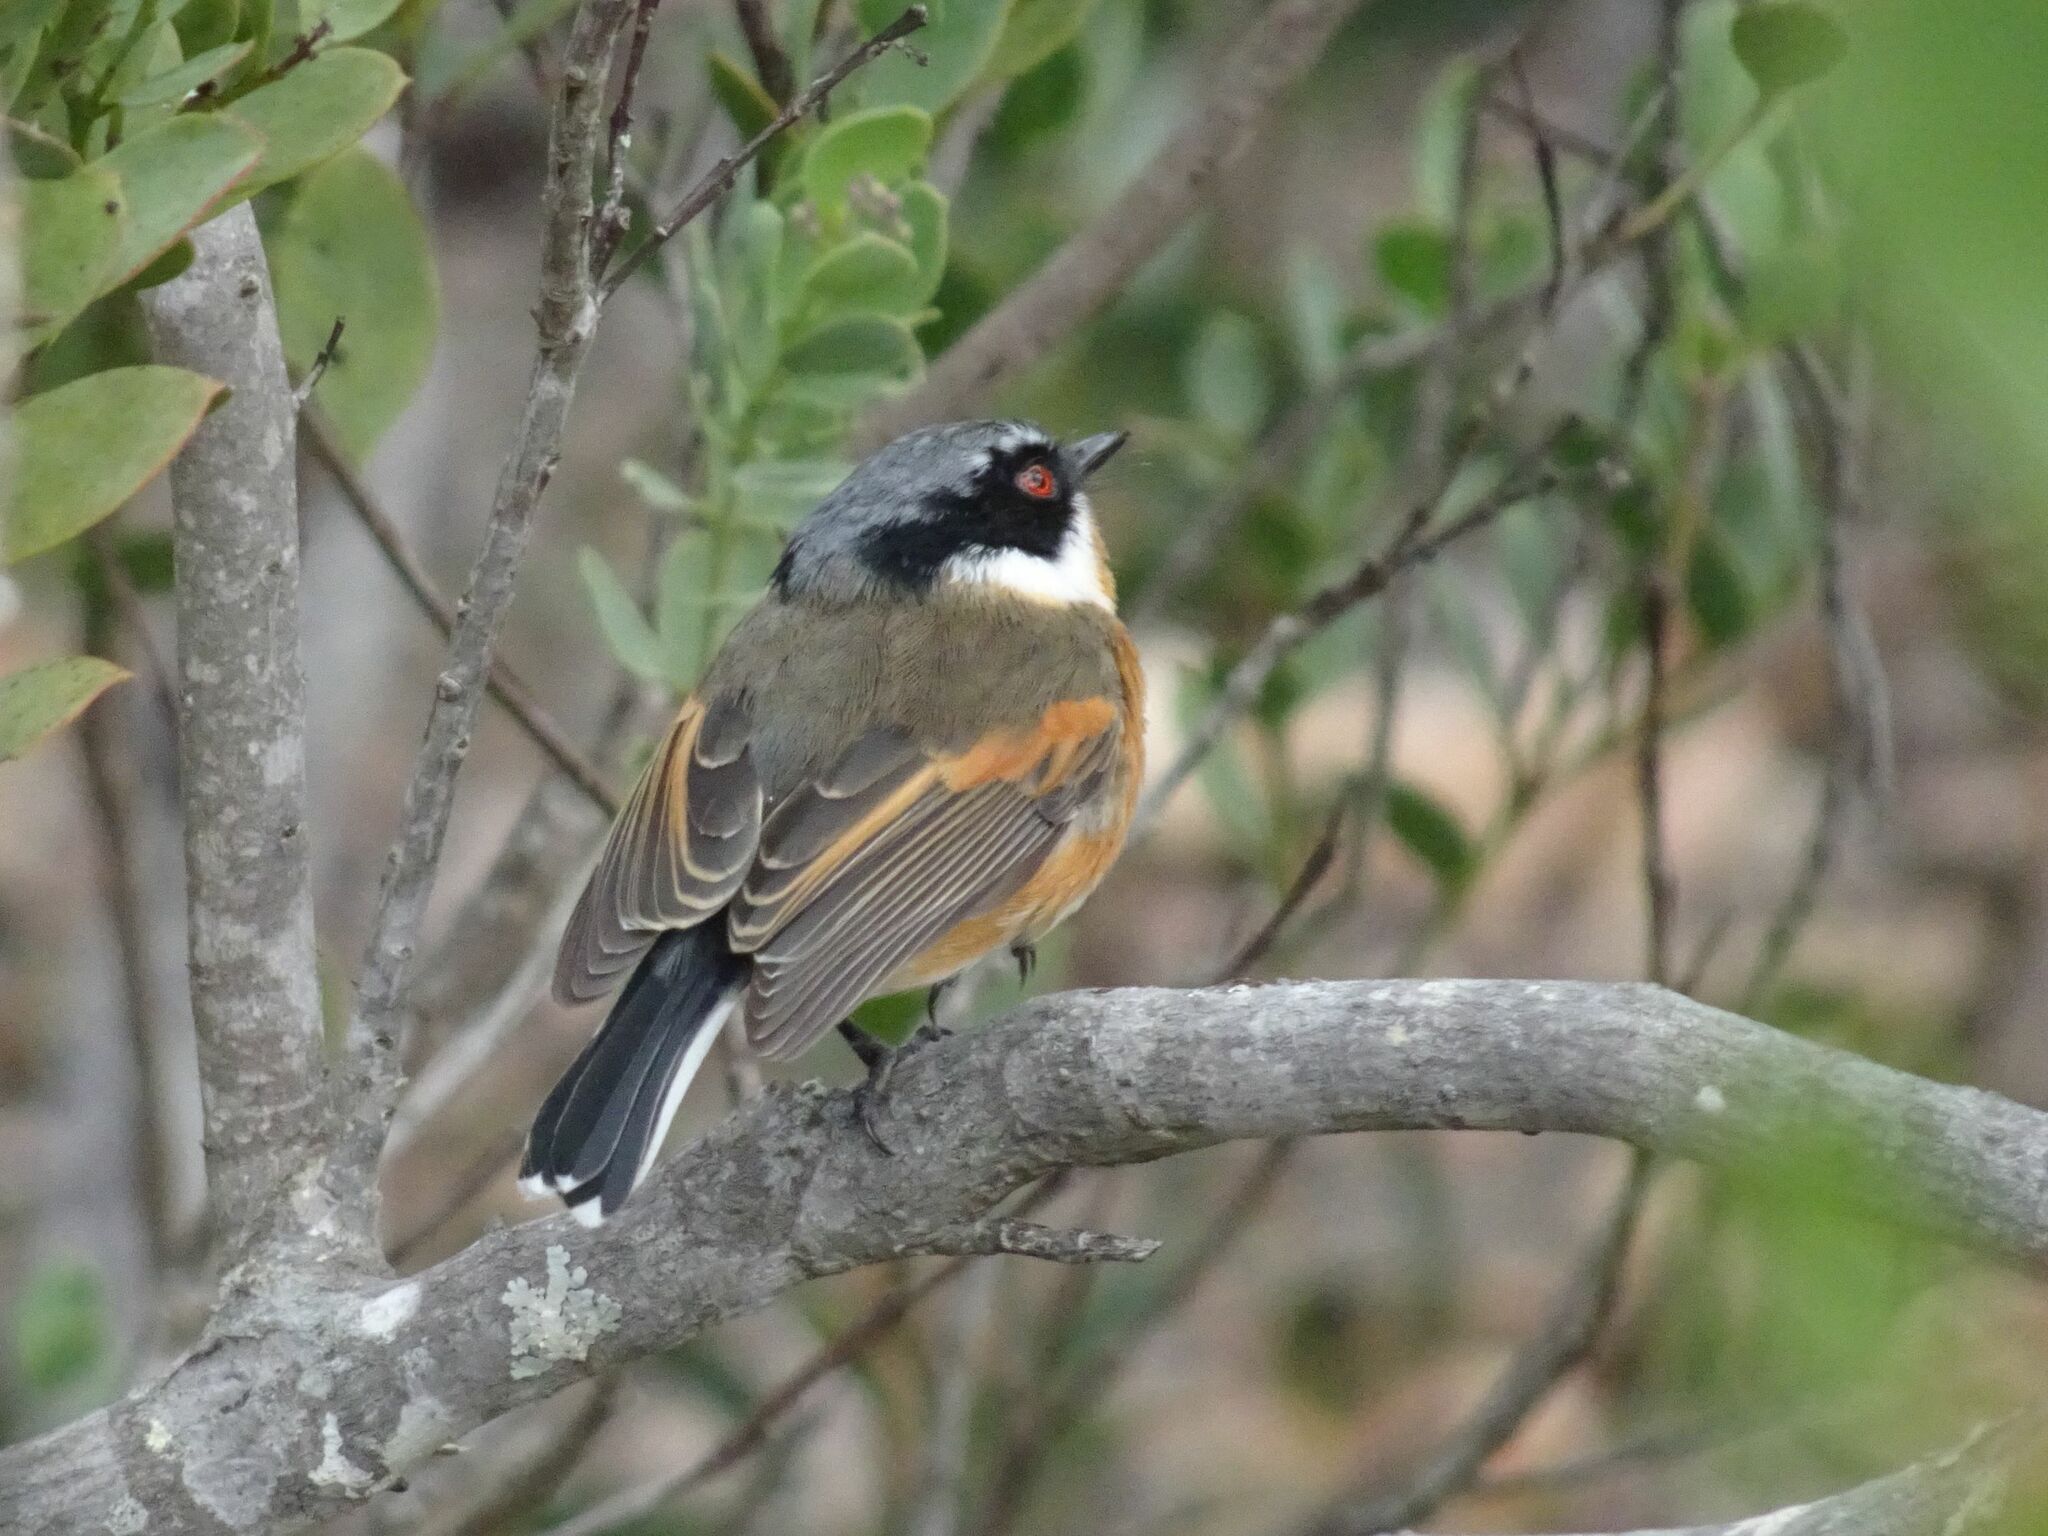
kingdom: Animalia
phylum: Chordata
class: Aves
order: Passeriformes
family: Platysteiridae
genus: Batis
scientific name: Batis capensis
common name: Cape batis
